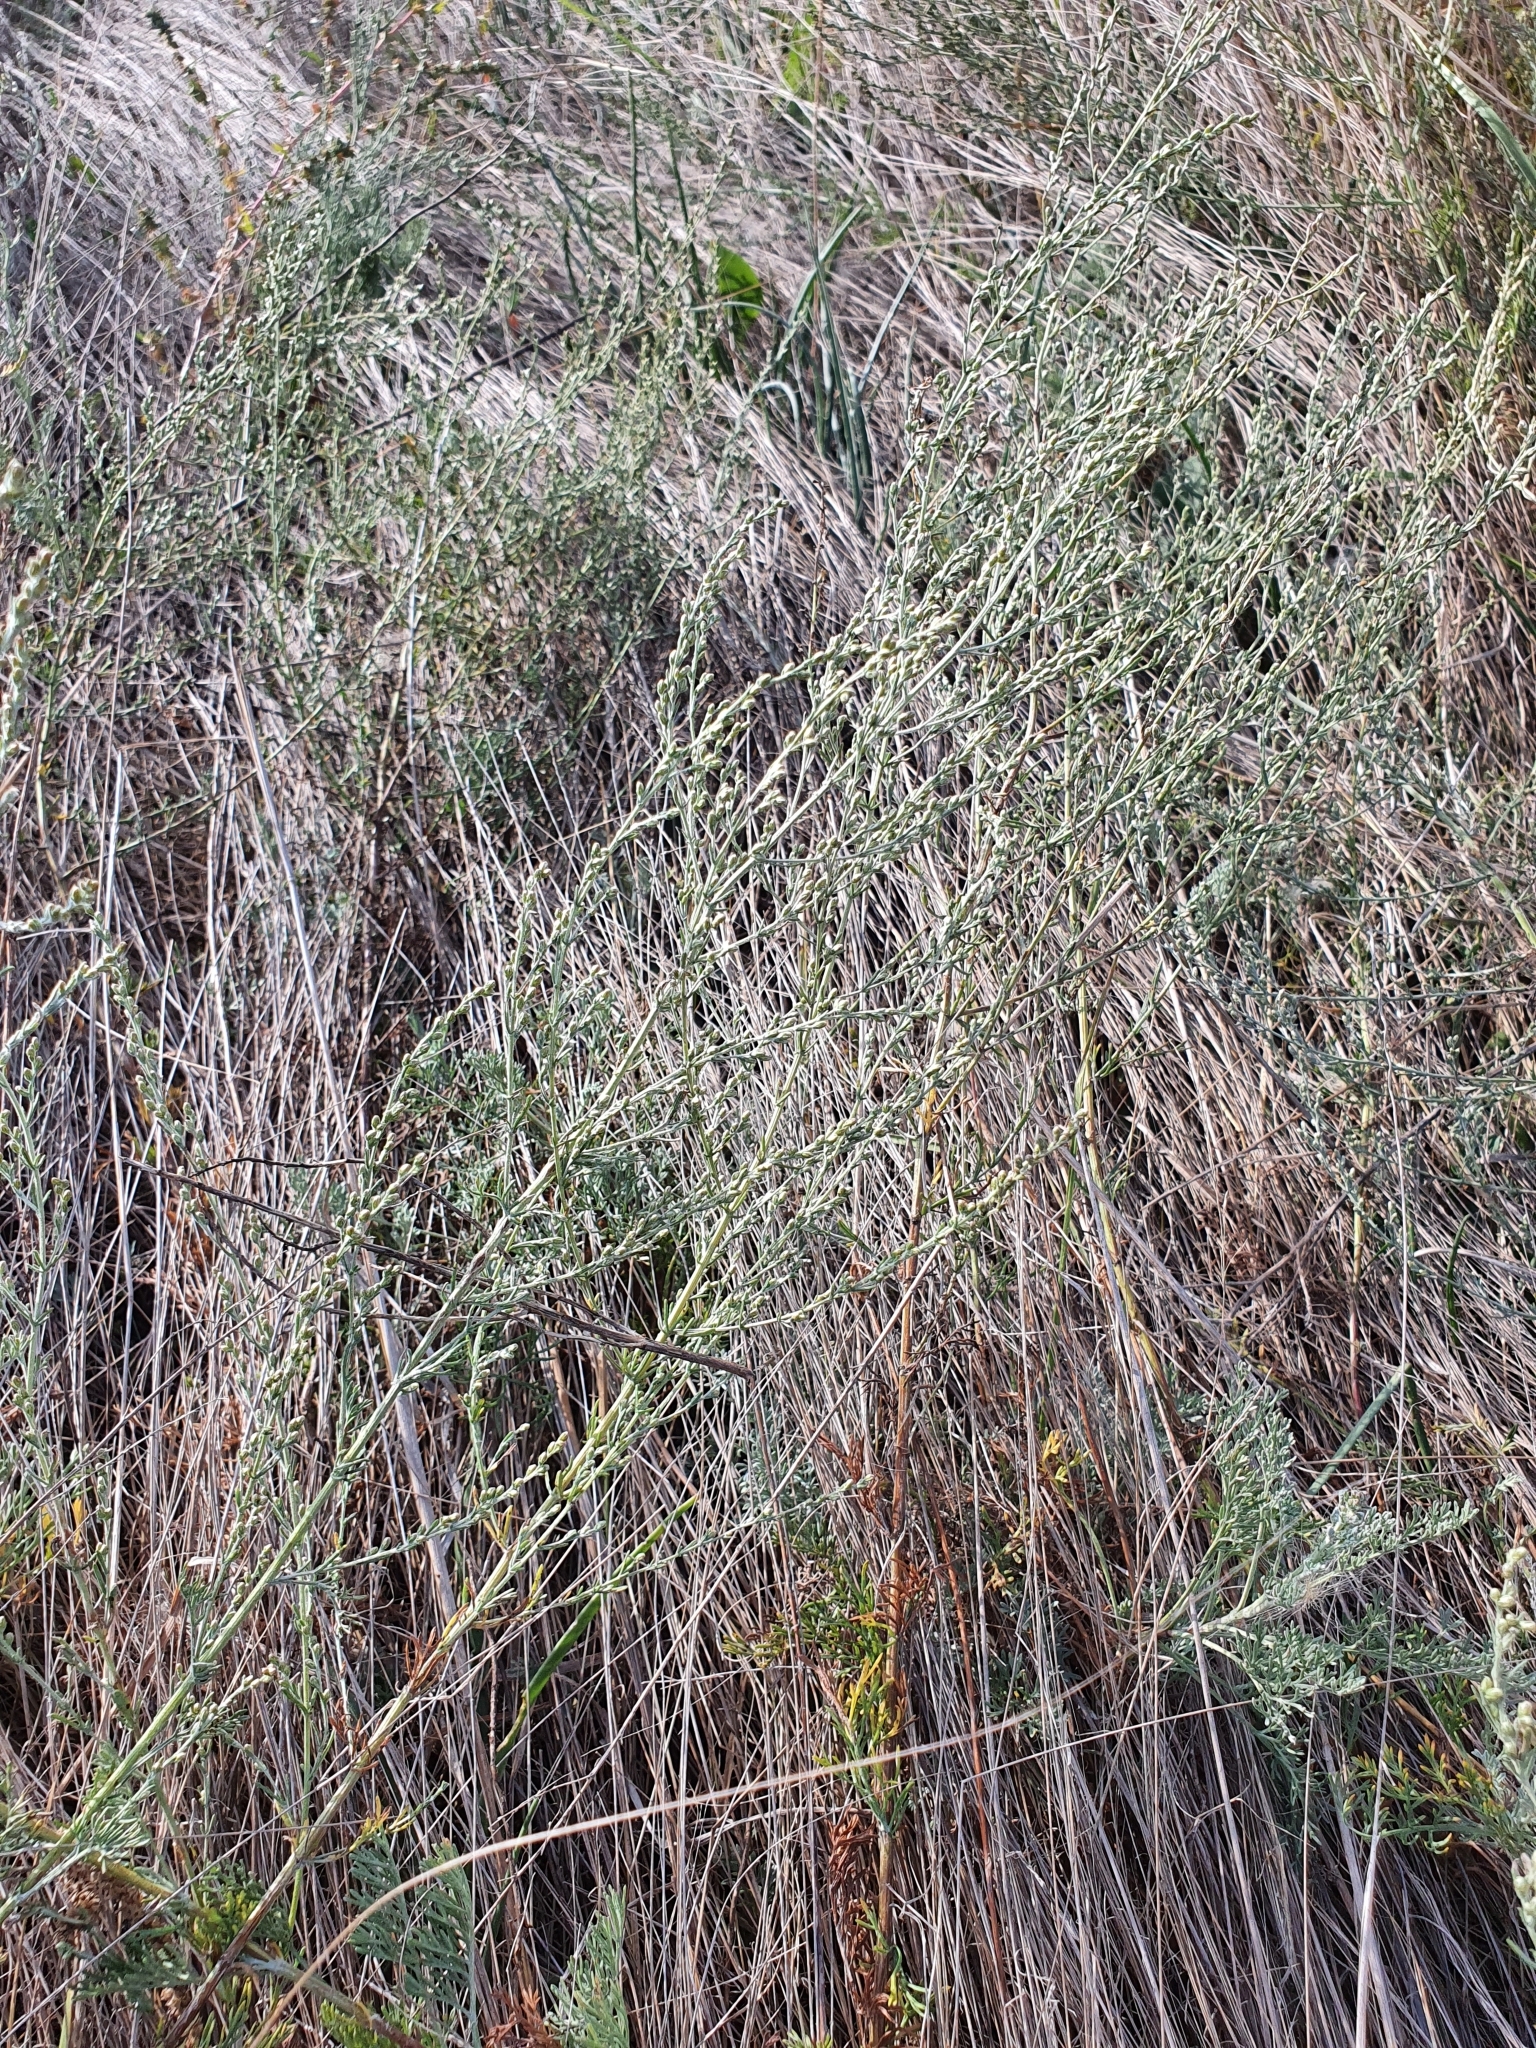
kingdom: Plantae
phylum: Tracheophyta
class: Magnoliopsida
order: Asterales
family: Asteraceae
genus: Artemisia
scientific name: Artemisia nitrosa
